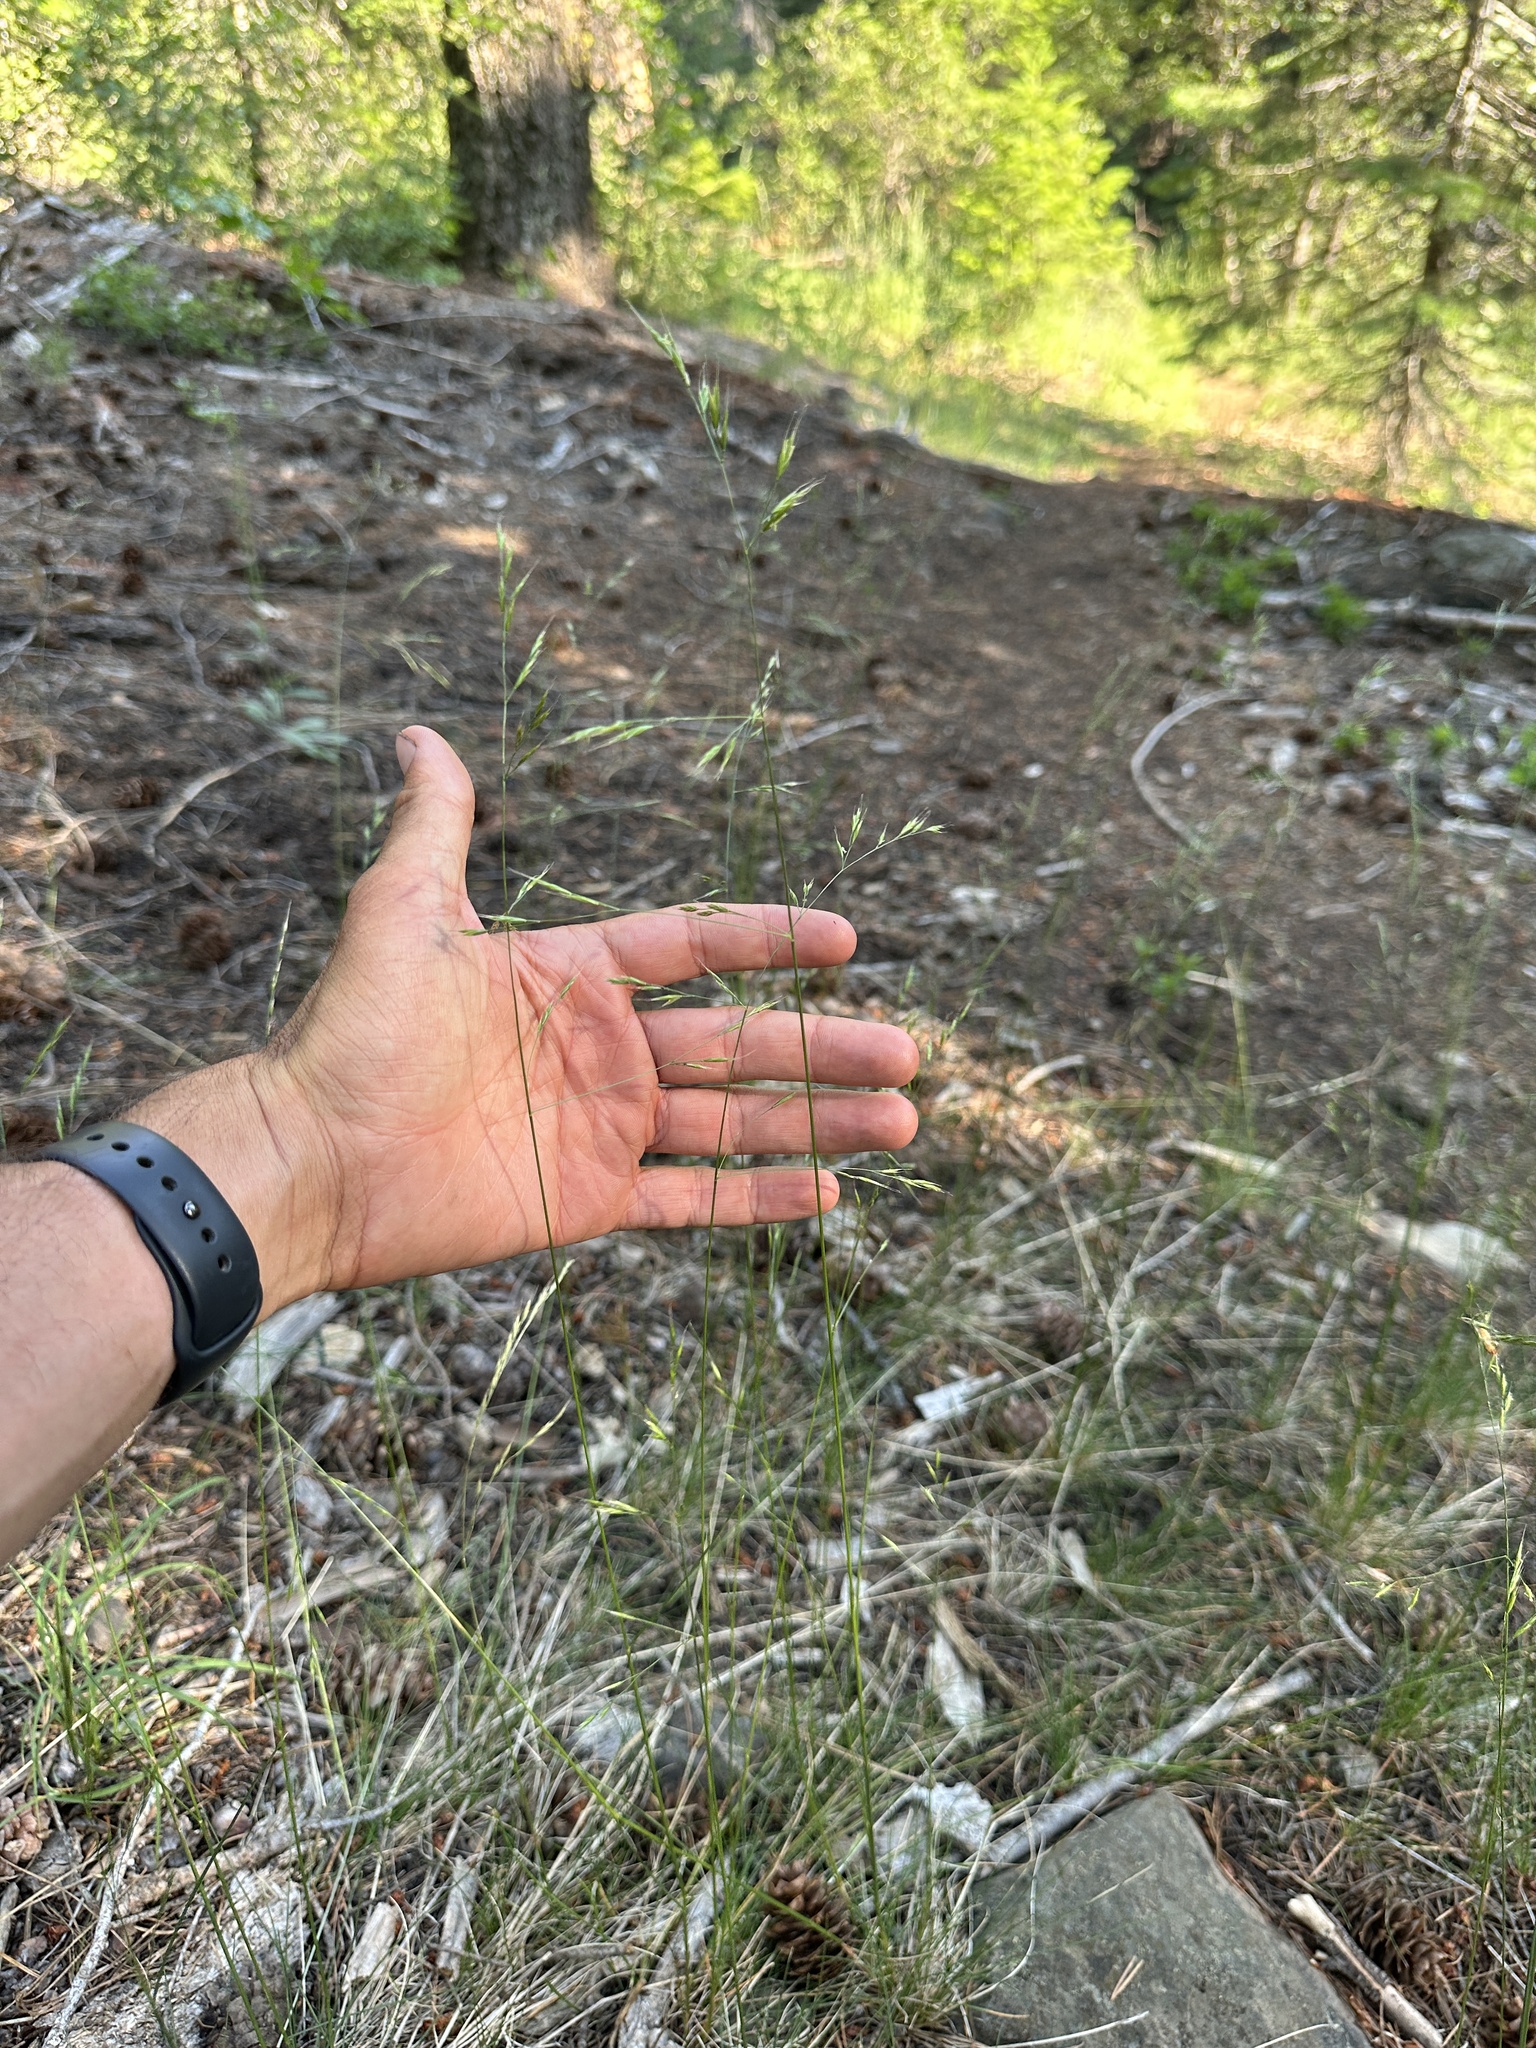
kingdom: Plantae
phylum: Tracheophyta
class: Liliopsida
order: Poales
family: Poaceae
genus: Festuca
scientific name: Festuca occidentalis
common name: Western fescue
